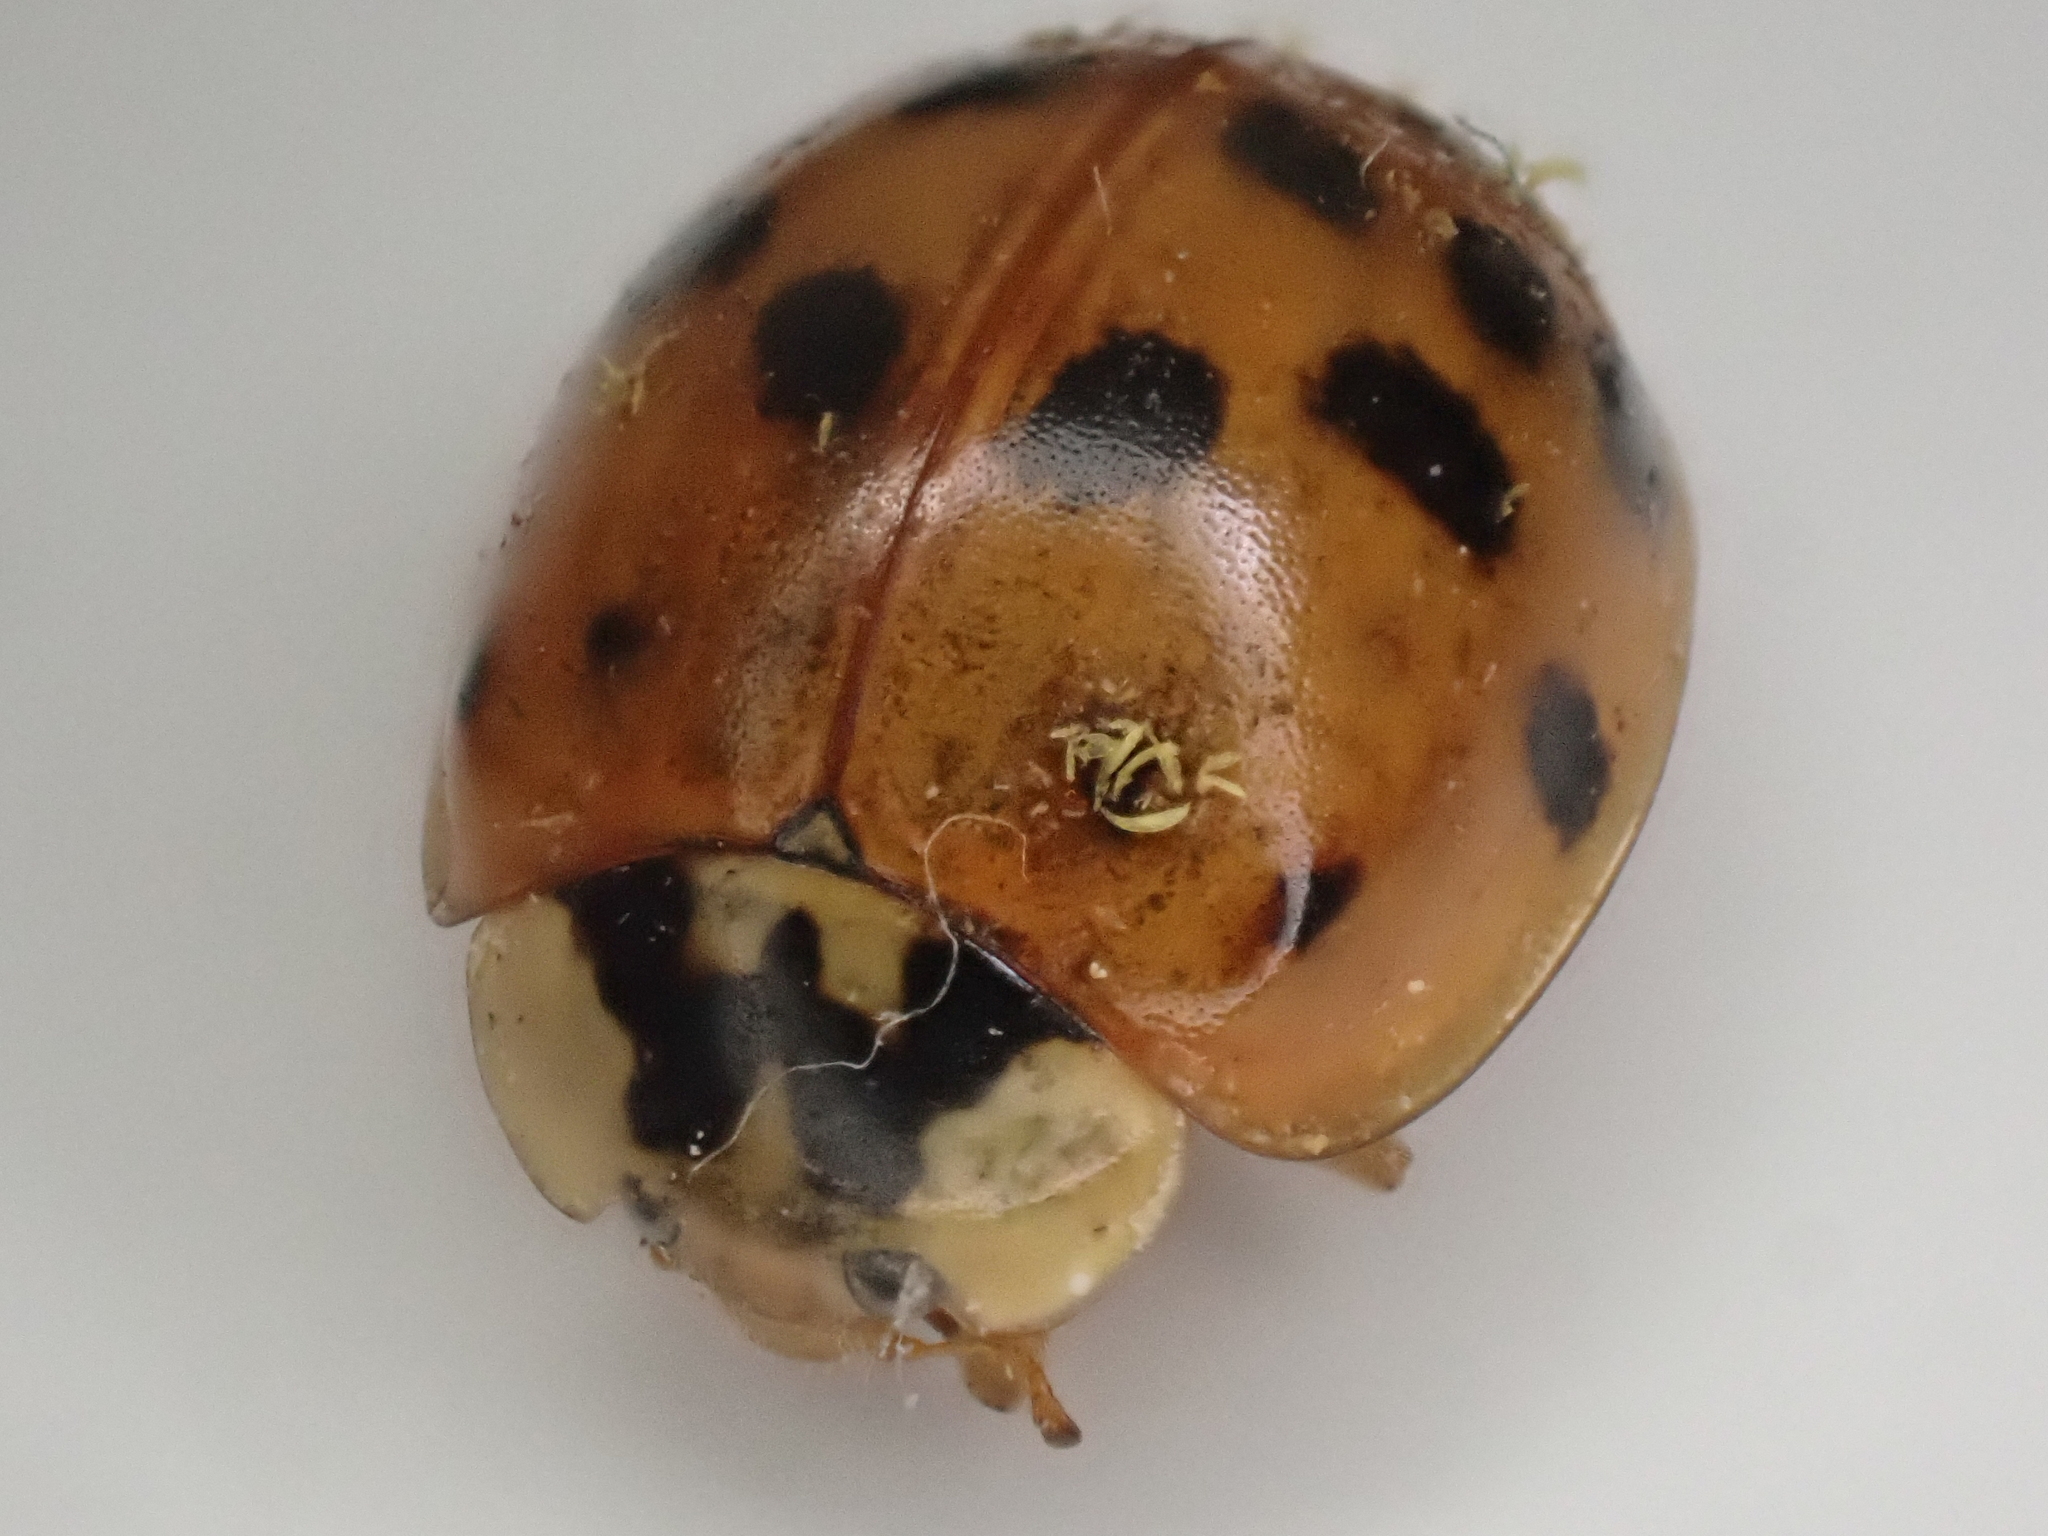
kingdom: Animalia
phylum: Arthropoda
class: Insecta
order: Coleoptera
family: Coccinellidae
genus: Harmonia
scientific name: Harmonia axyridis
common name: Harlequin ladybird
